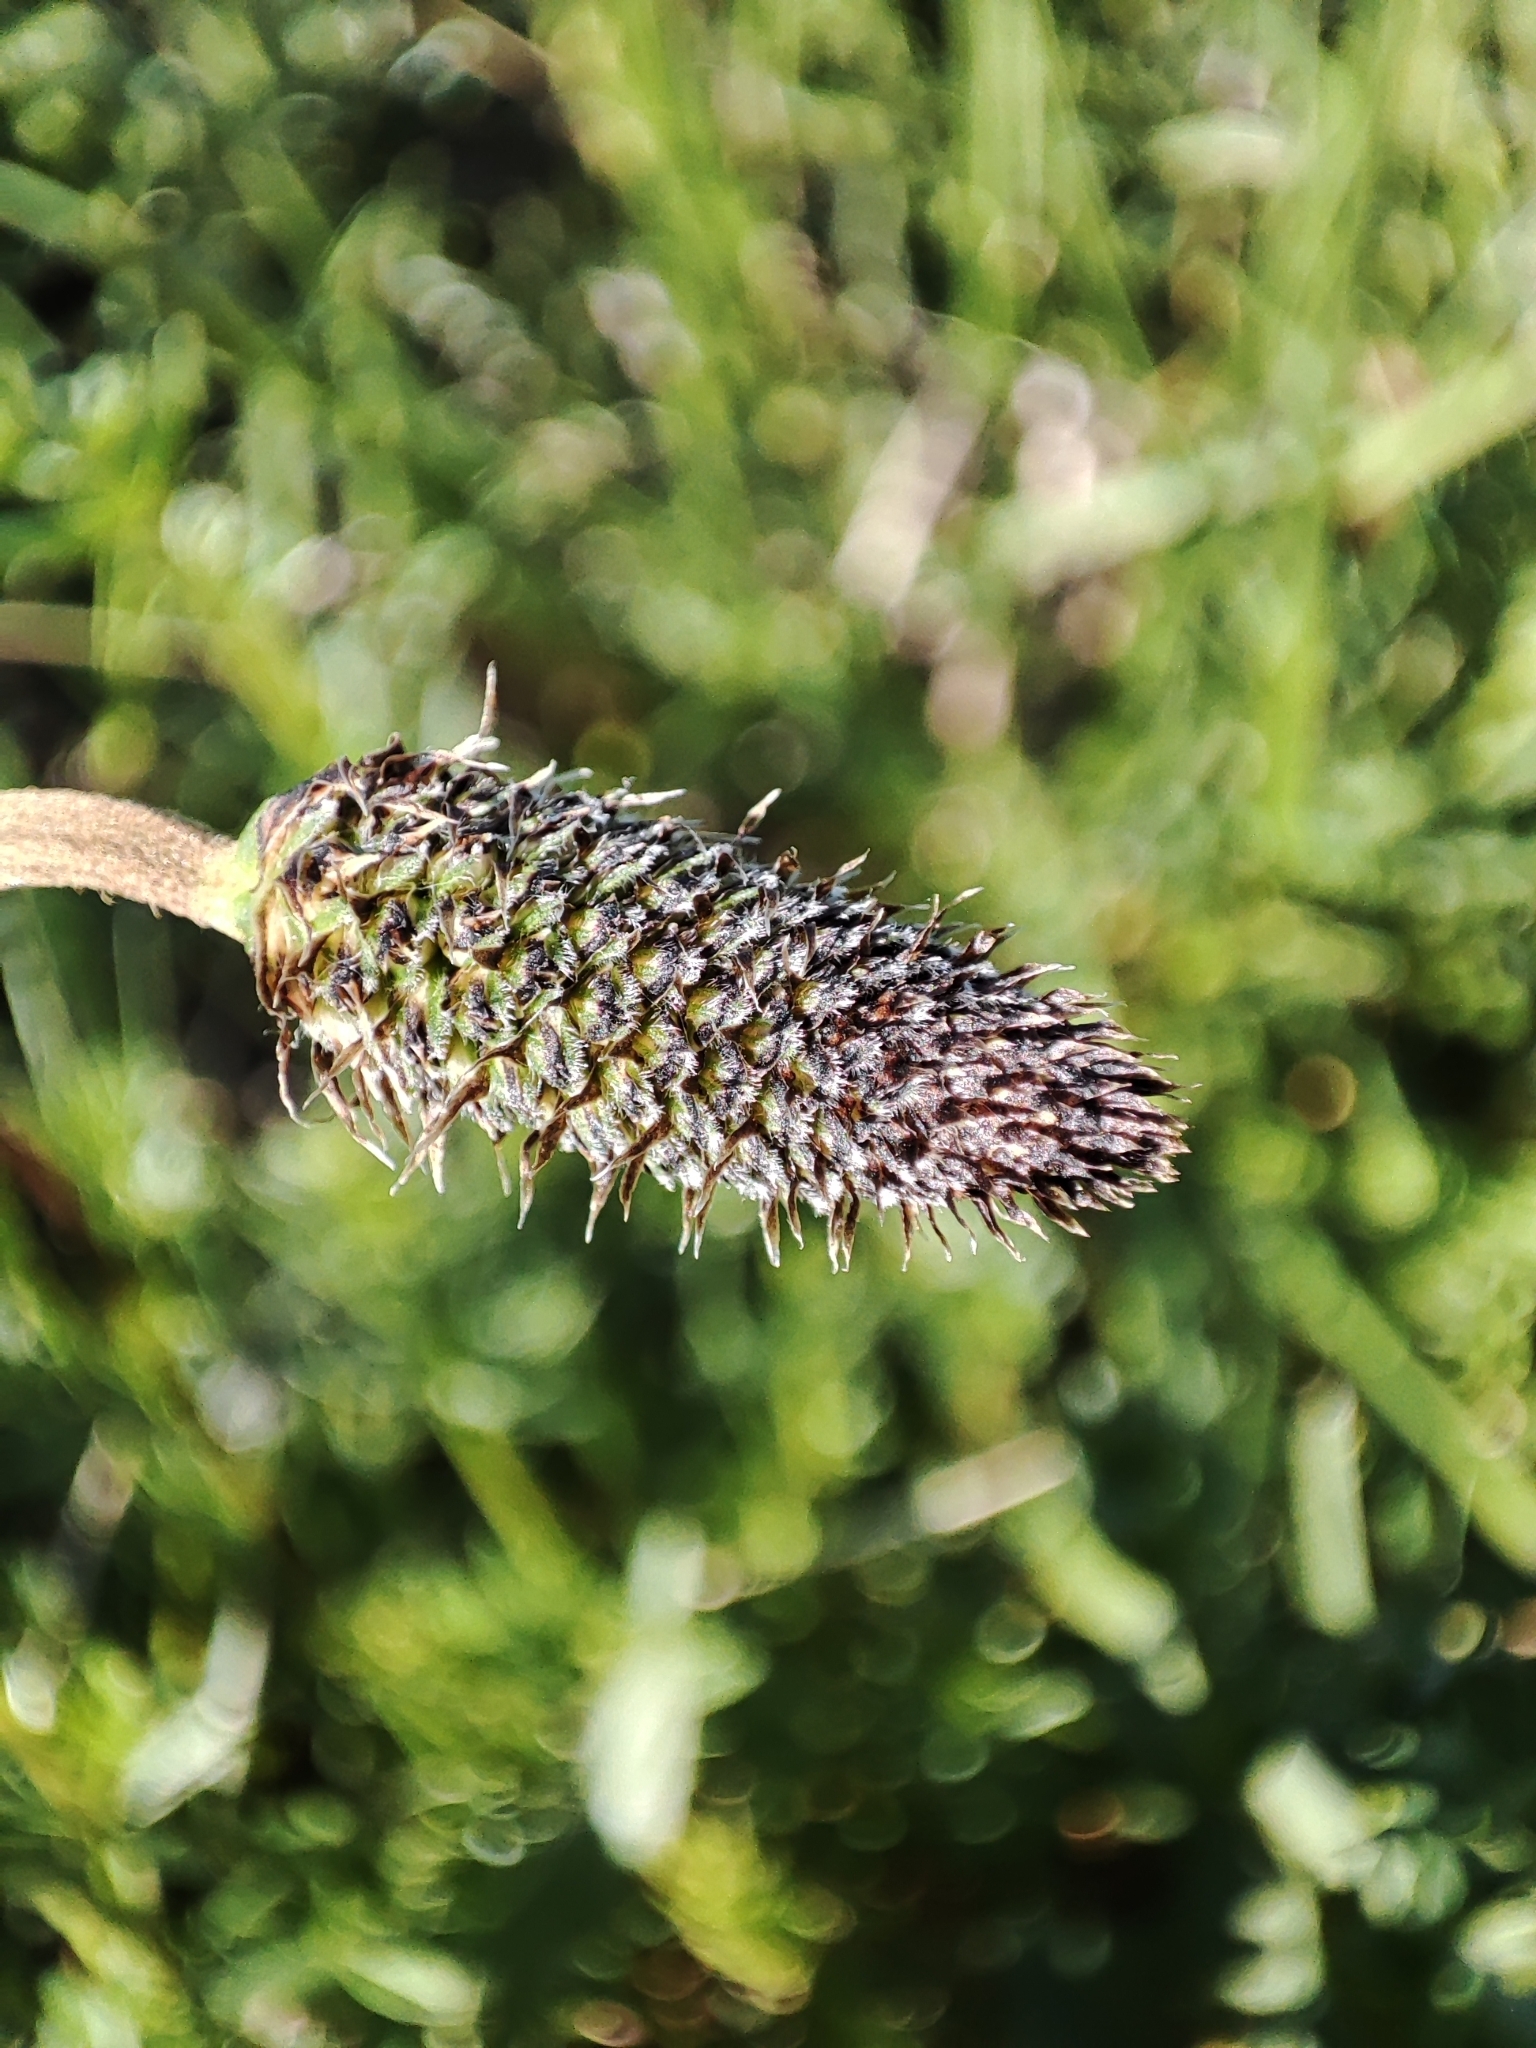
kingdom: Plantae
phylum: Tracheophyta
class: Magnoliopsida
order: Lamiales
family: Plantaginaceae
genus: Plantago
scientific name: Plantago lanceolata
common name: Ribwort plantain
